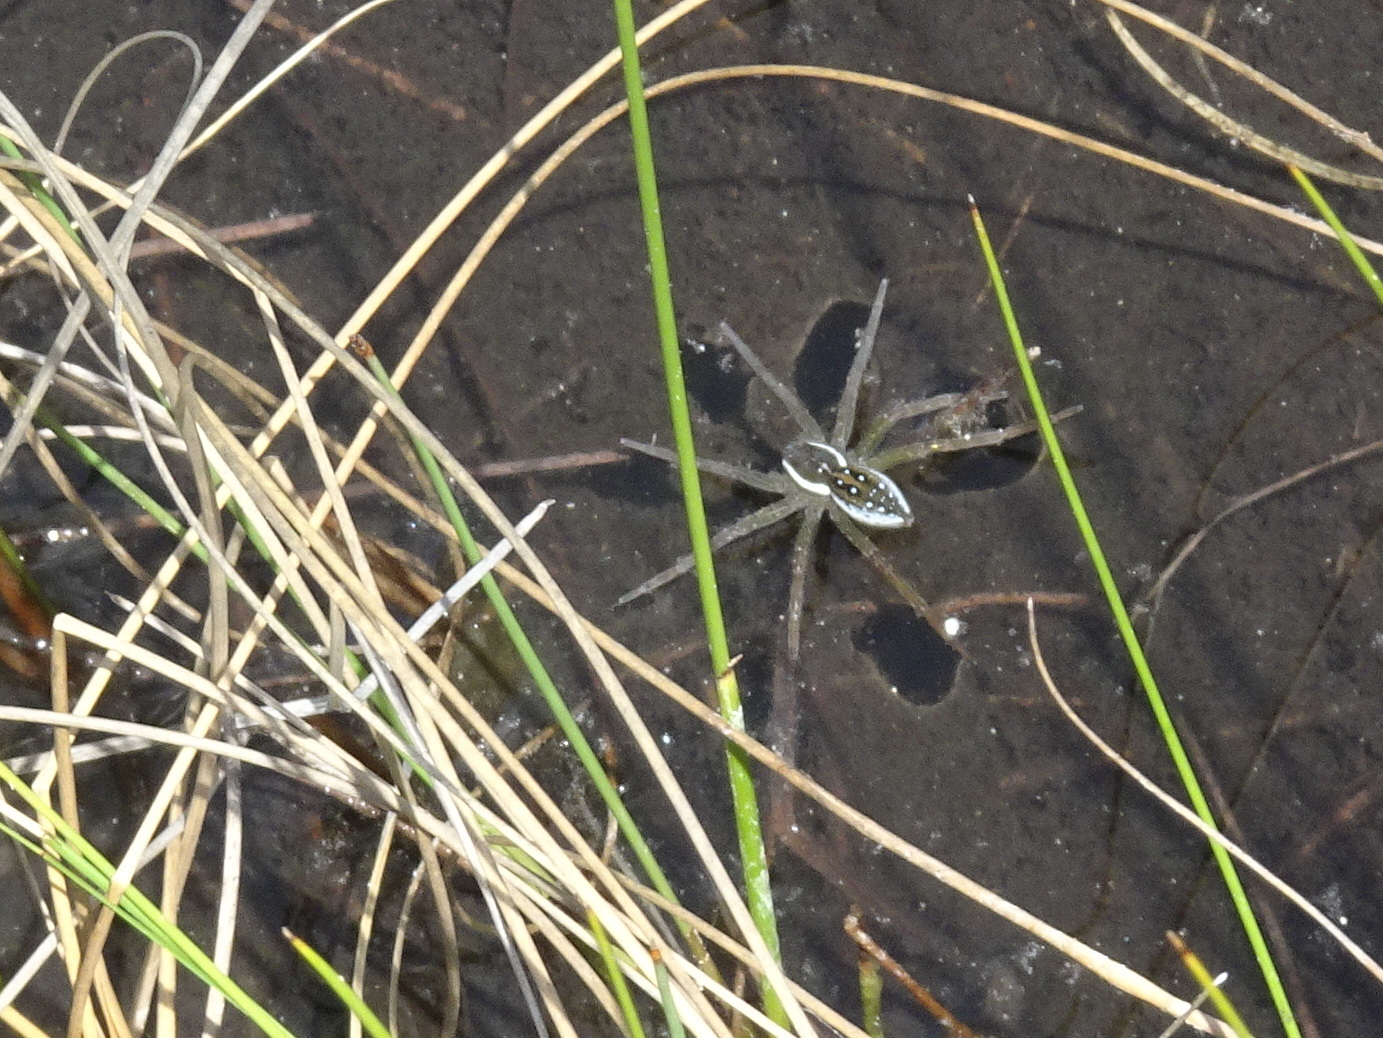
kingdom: Animalia
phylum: Arthropoda
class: Arachnida
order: Araneae
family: Pisauridae
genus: Dolomedes
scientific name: Dolomedes triton
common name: Six-spotted fishing spider
